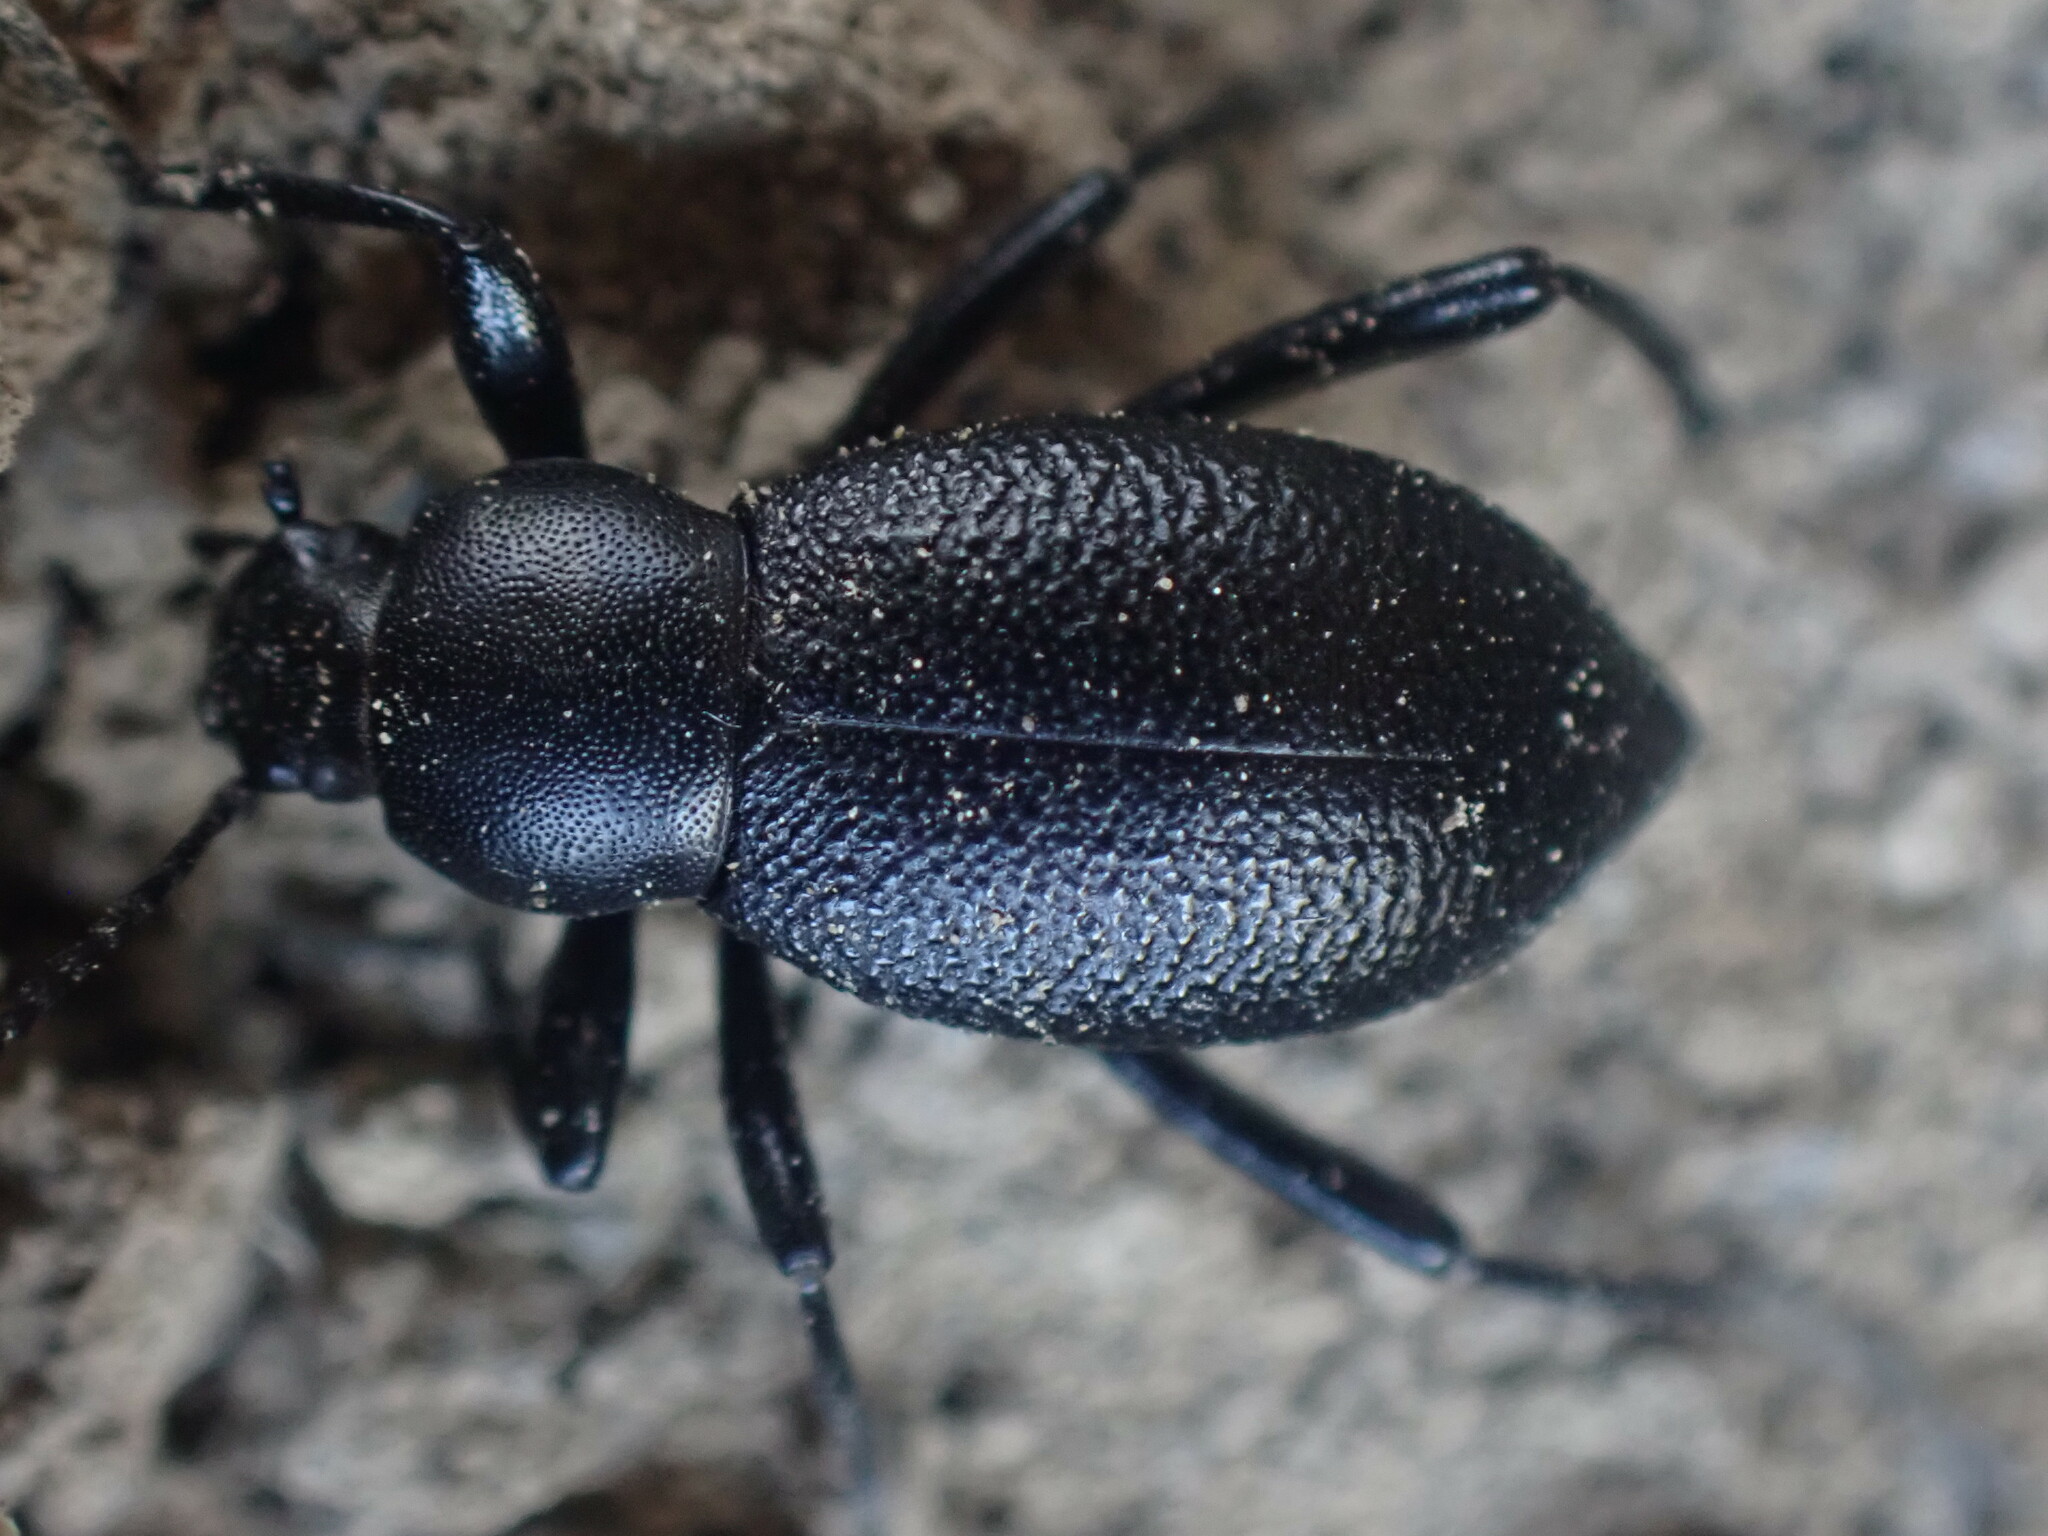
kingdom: Animalia
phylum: Arthropoda
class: Insecta
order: Coleoptera
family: Tenebrionidae
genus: Eleodes
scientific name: Eleodes granulata
